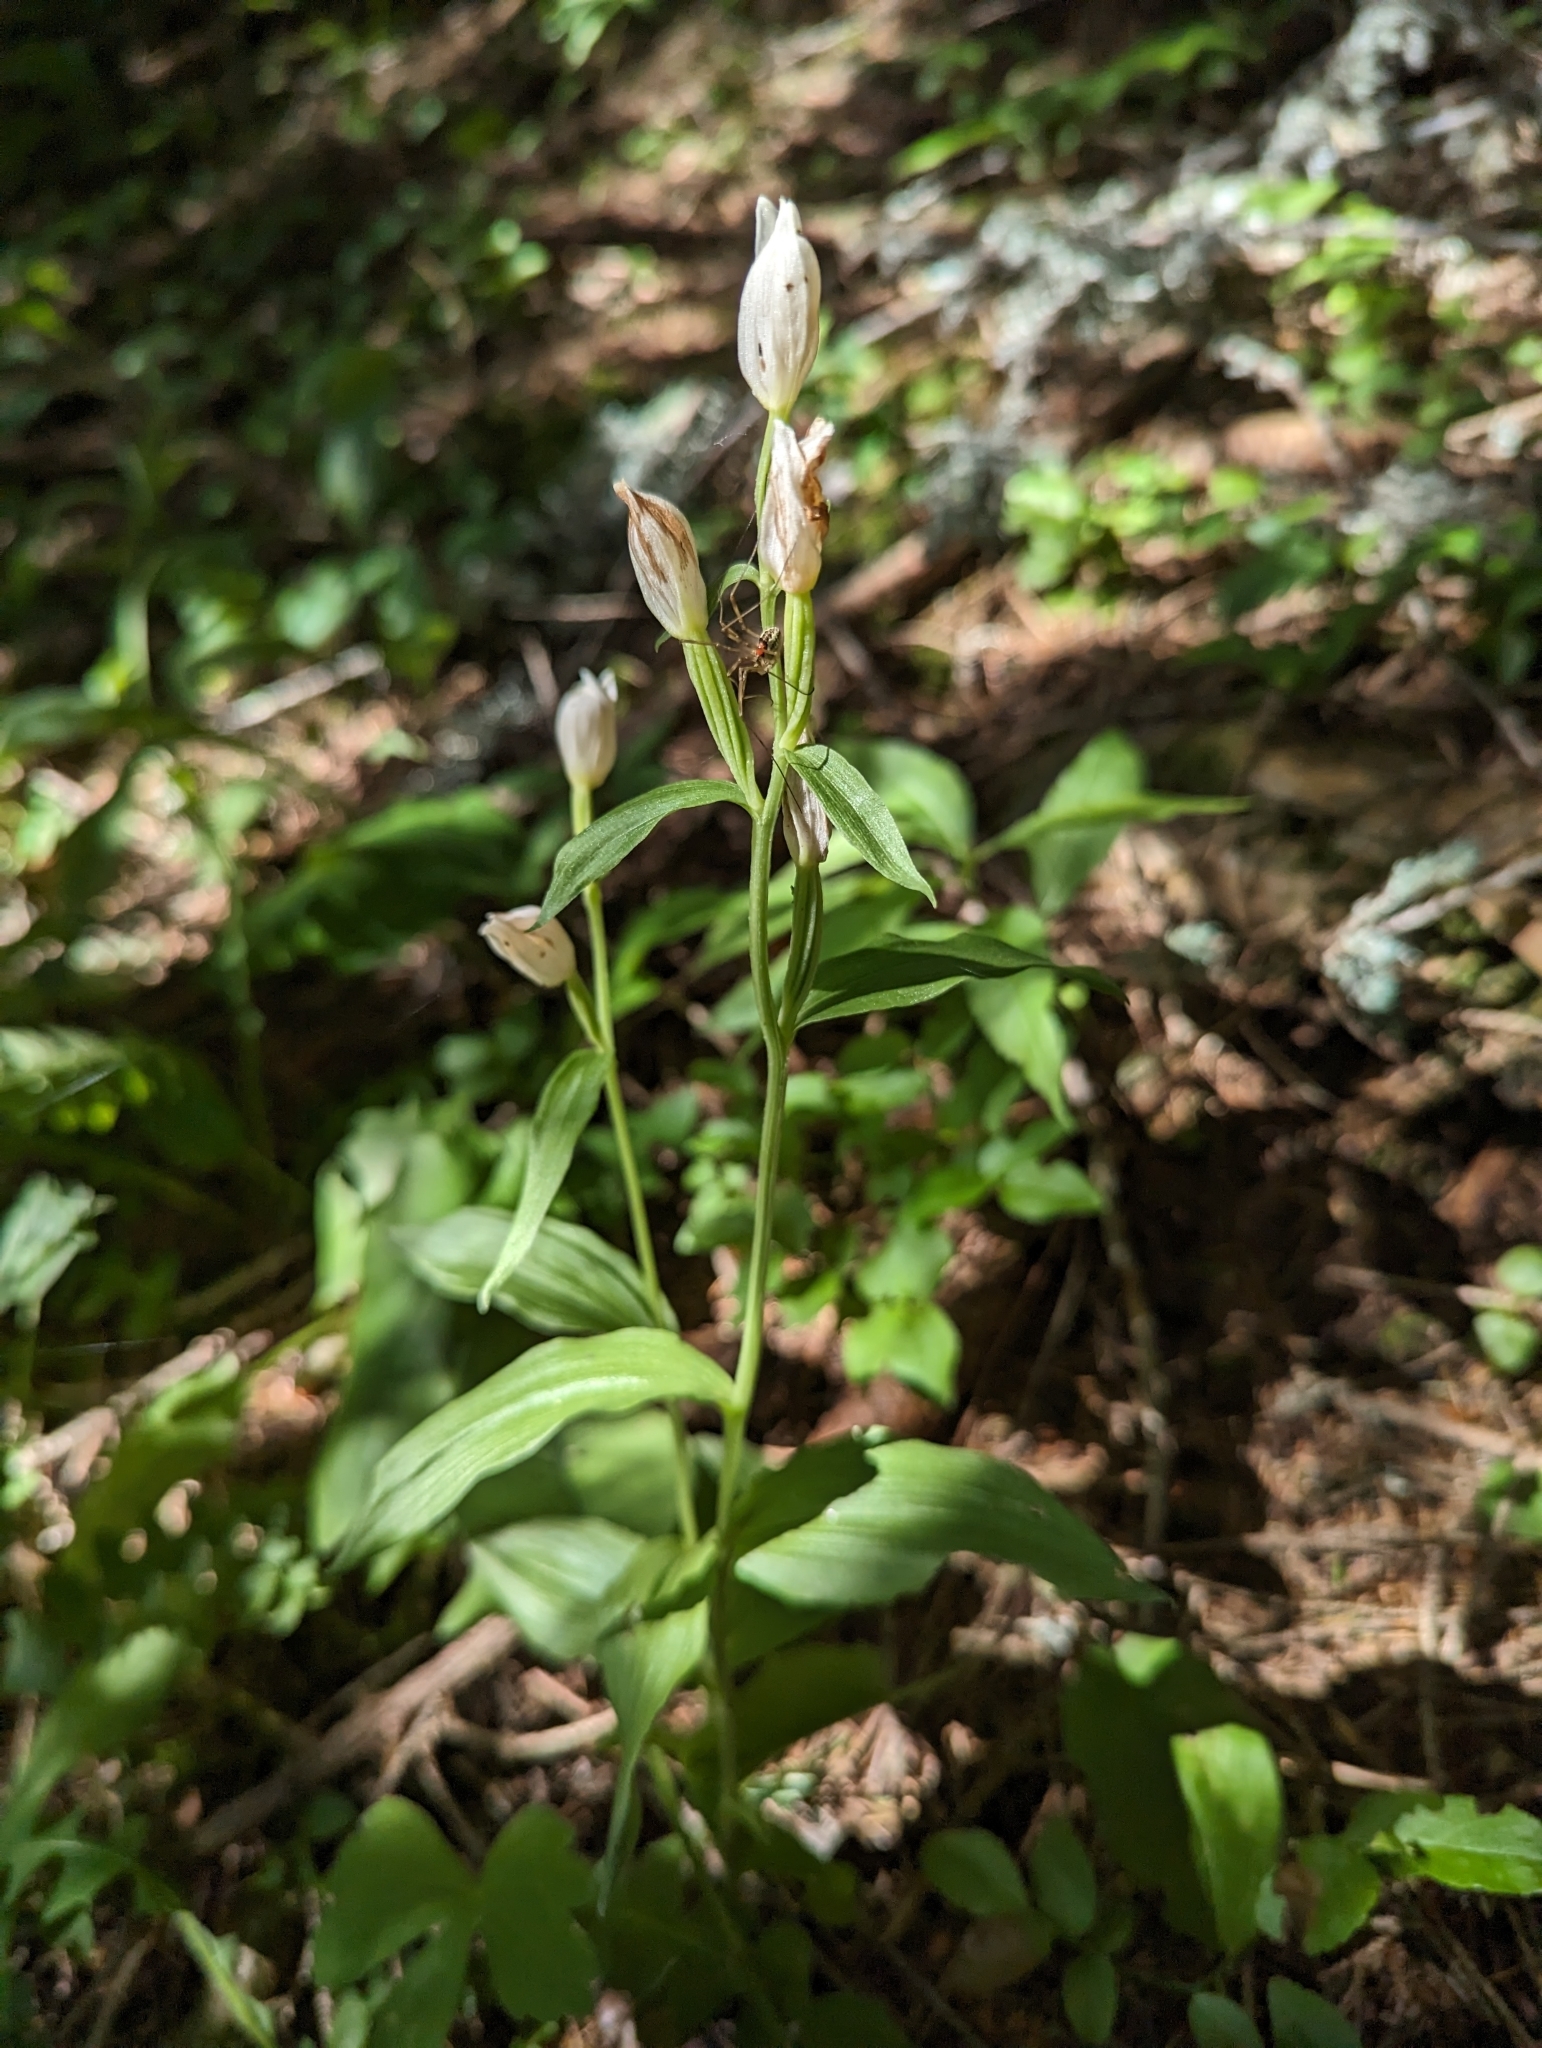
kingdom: Plantae
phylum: Tracheophyta
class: Liliopsida
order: Asparagales
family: Orchidaceae
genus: Cephalanthera
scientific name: Cephalanthera damasonium
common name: White helleborine
